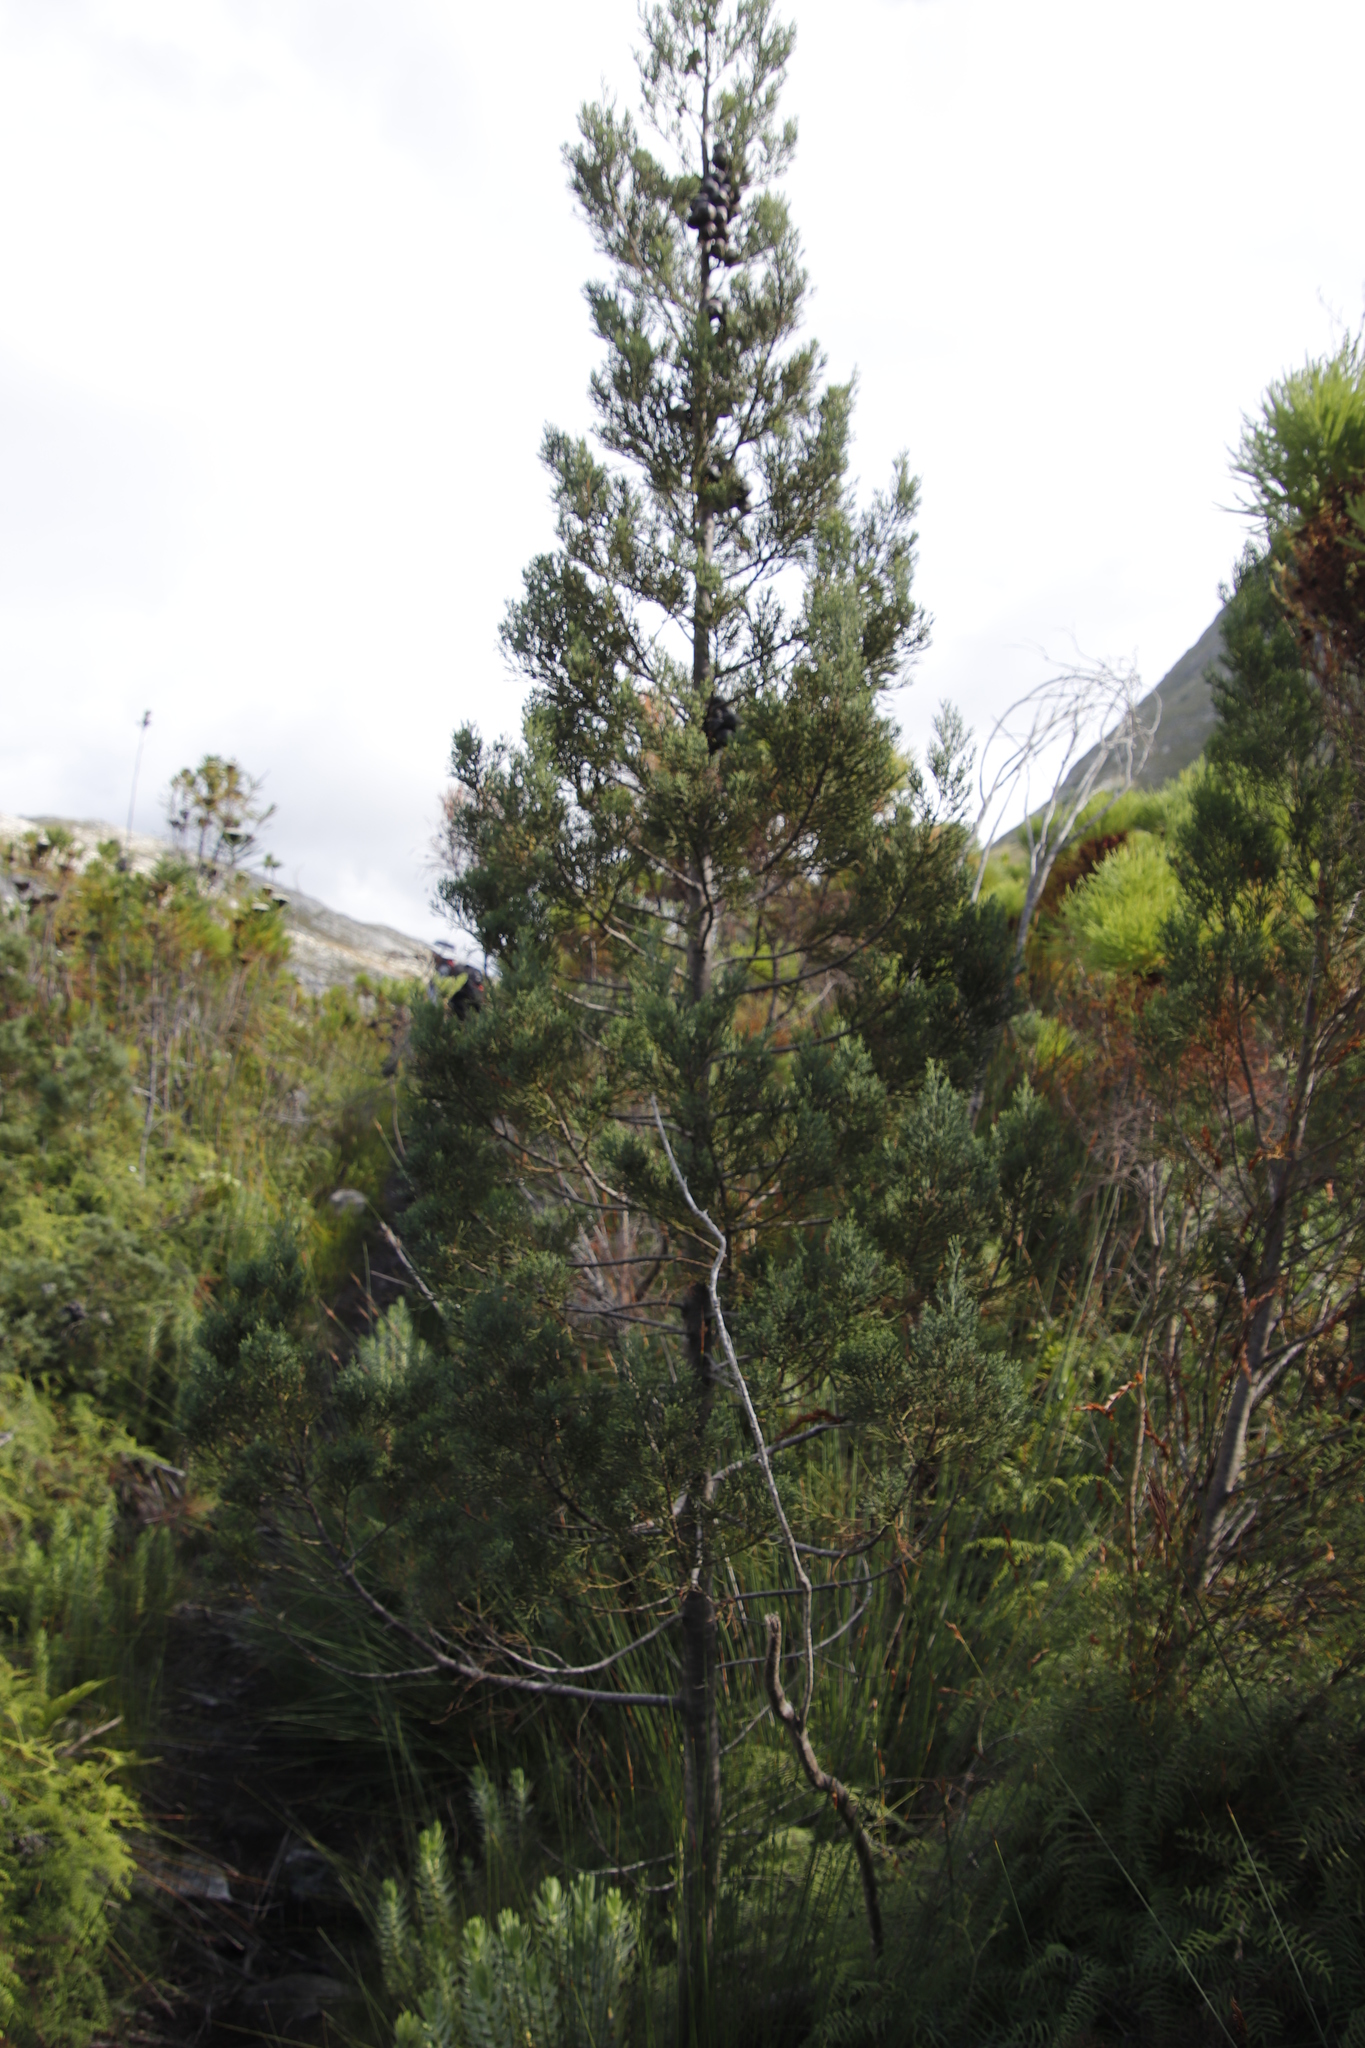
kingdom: Plantae
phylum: Tracheophyta
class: Pinopsida
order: Pinales
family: Cupressaceae
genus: Widdringtonia
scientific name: Widdringtonia nodiflora
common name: Cape cypress
